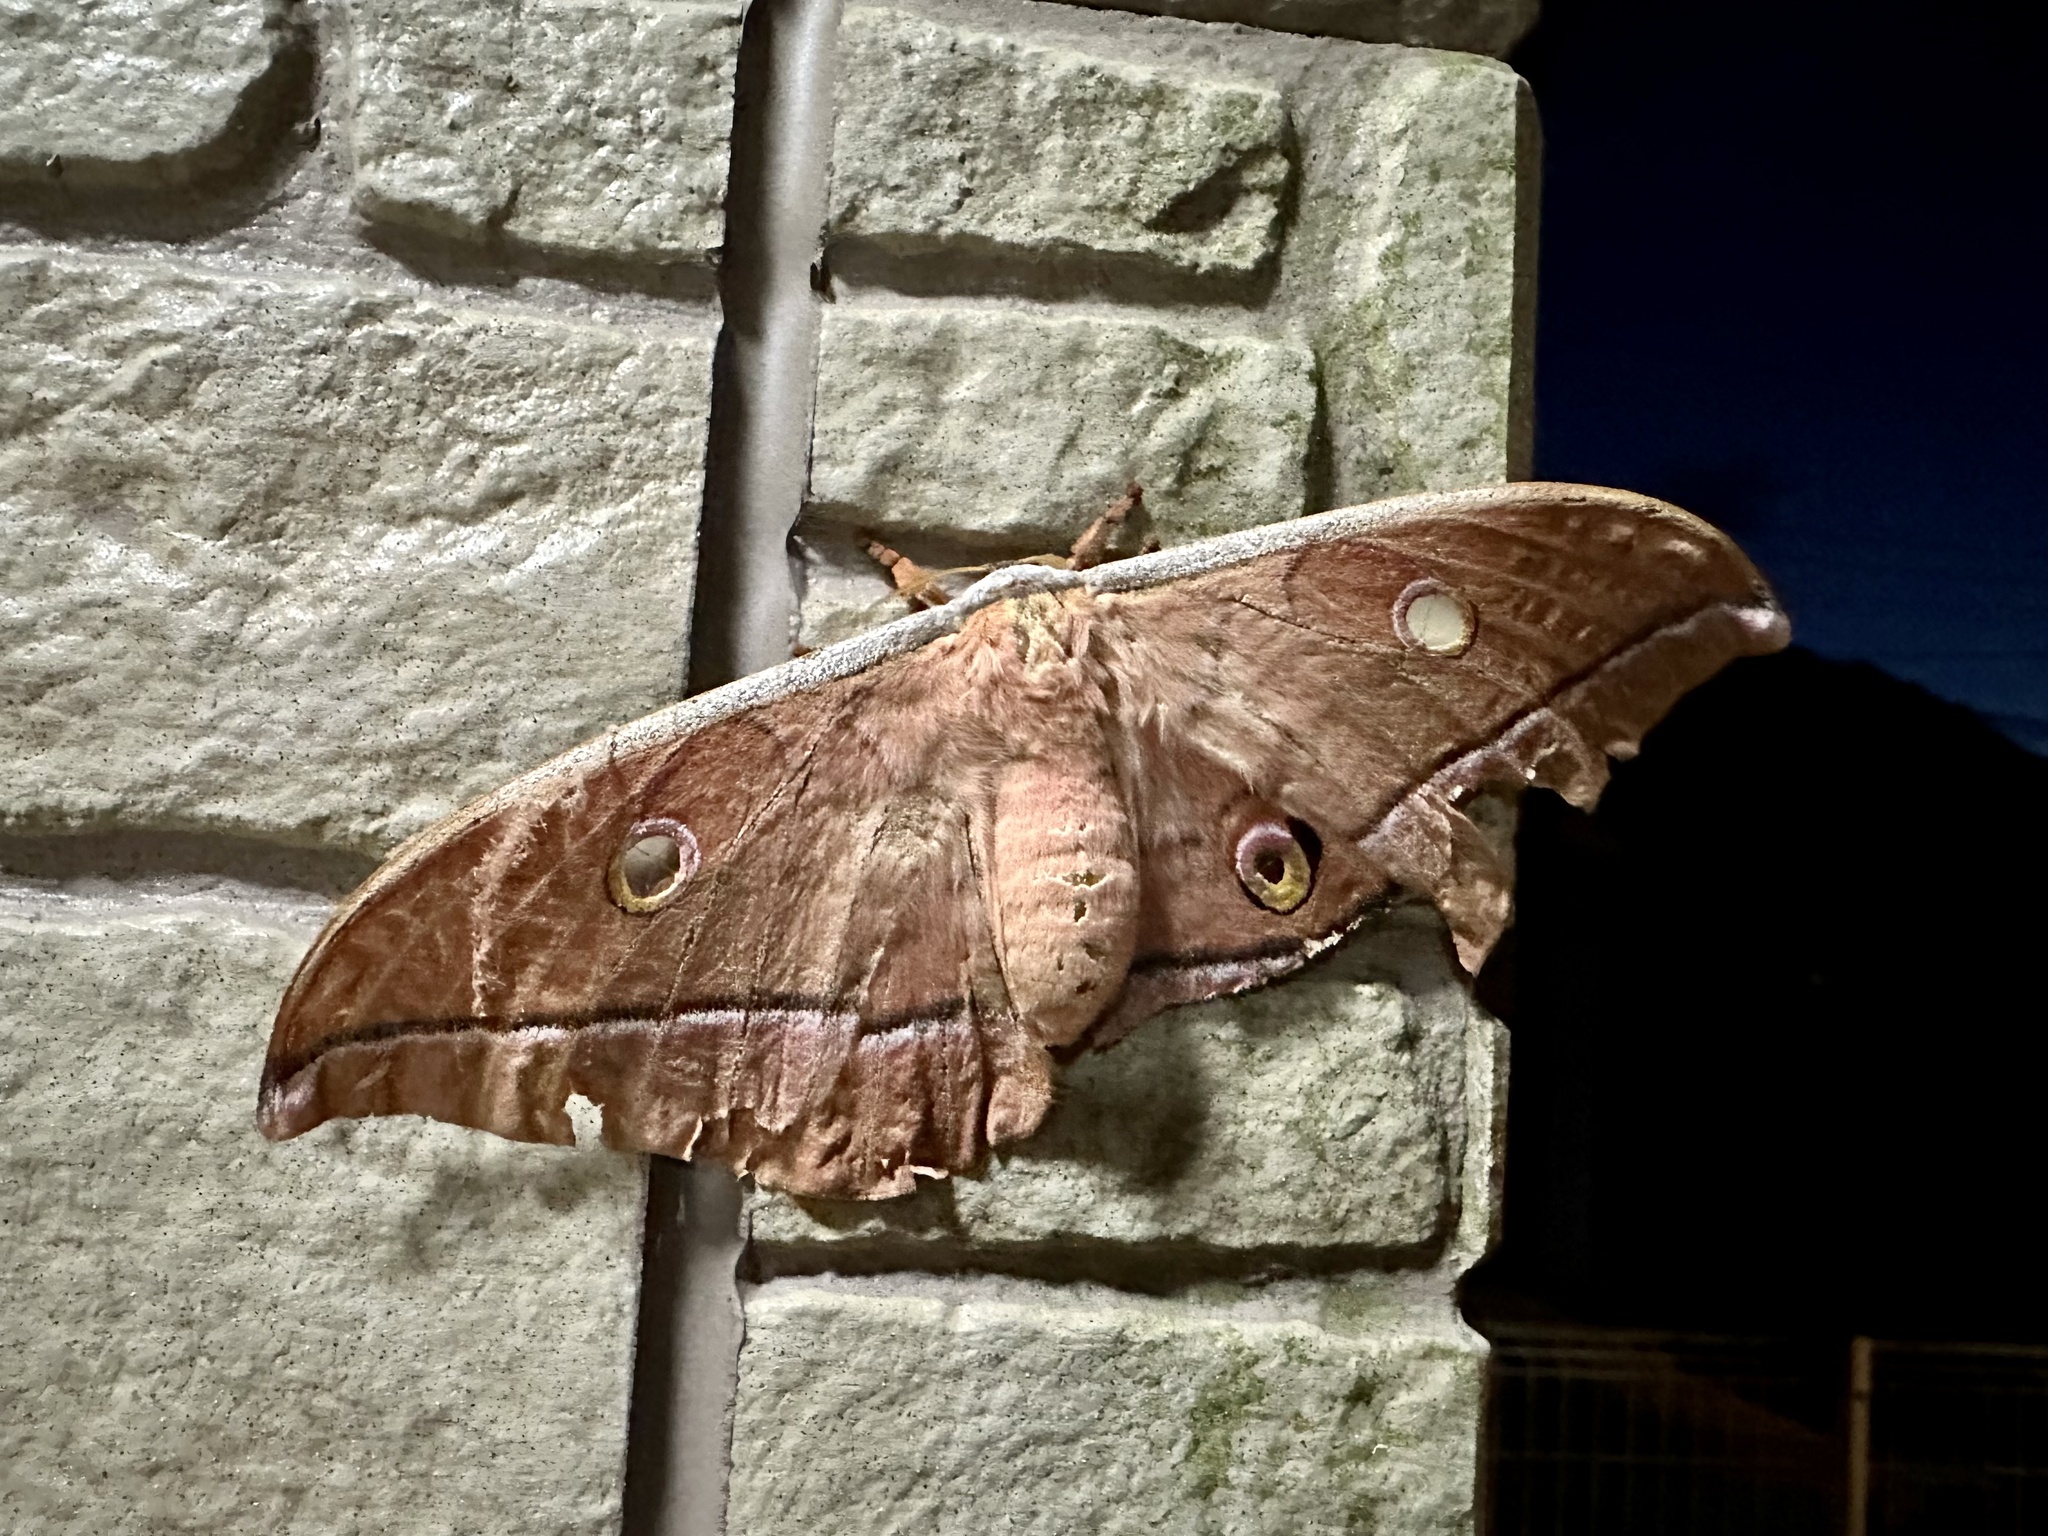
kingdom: Animalia
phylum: Arthropoda
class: Insecta
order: Lepidoptera
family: Saturniidae
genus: Antheraea
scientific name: Antheraea yamamai
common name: Japanese oak silk moth
